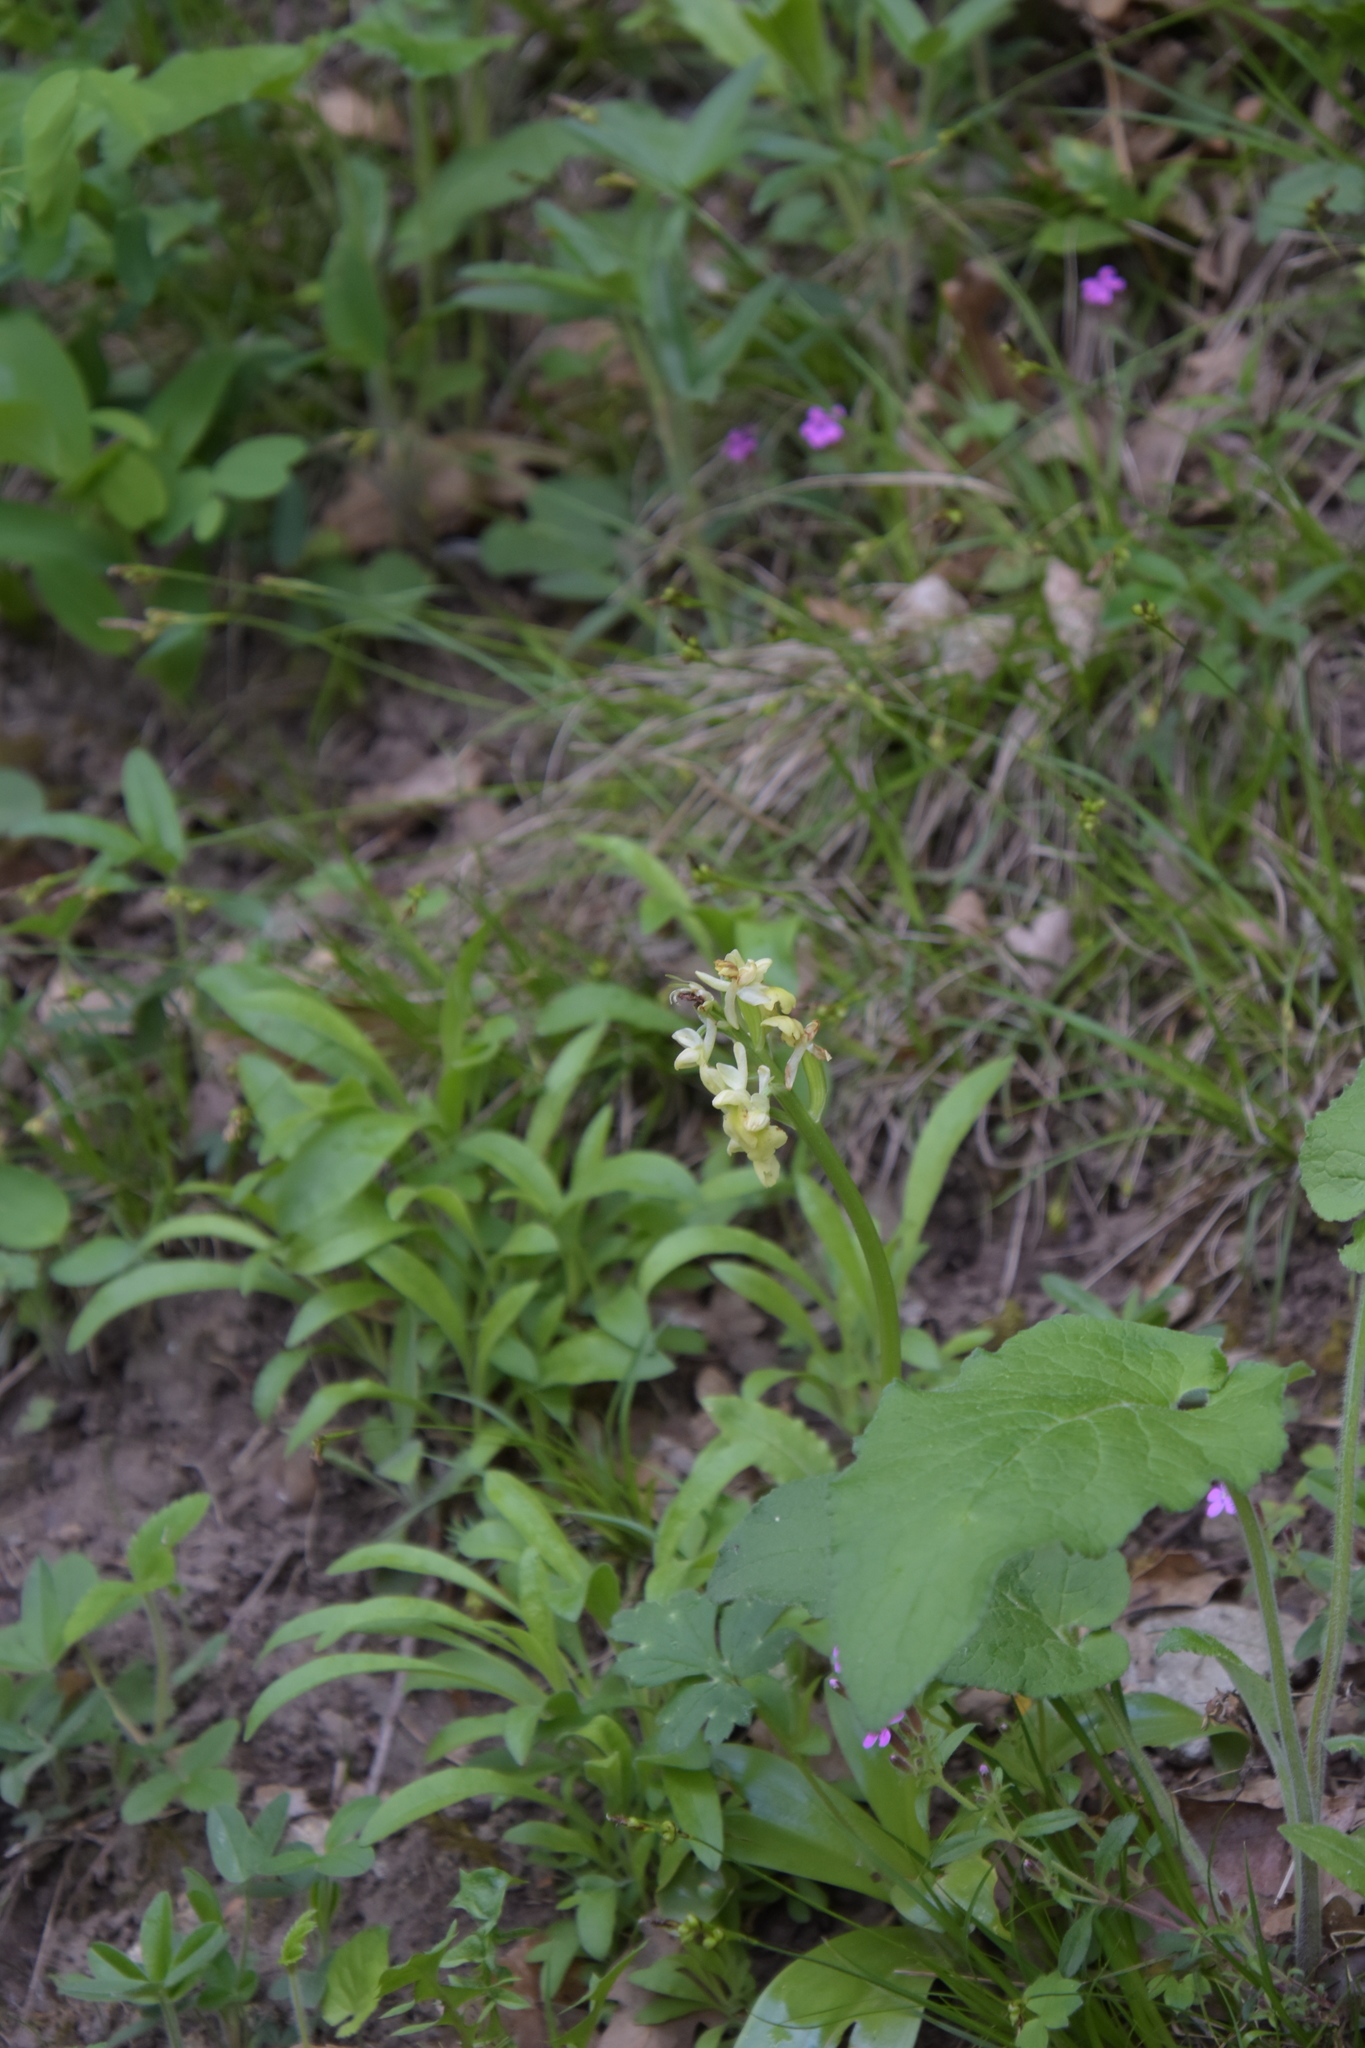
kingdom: Plantae
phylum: Tracheophyta
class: Liliopsida
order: Asparagales
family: Orchidaceae
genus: Orchis
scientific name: Orchis pallens
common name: Pale-flowered orchid
